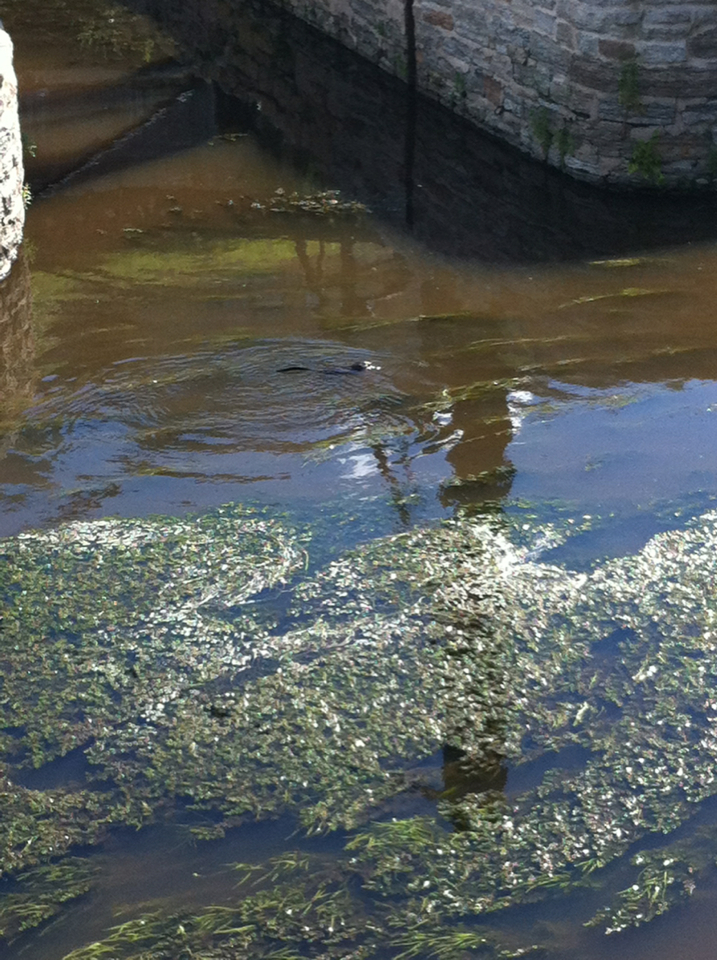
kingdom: Animalia
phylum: Chordata
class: Mammalia
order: Rodentia
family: Cricetidae
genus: Ondatra
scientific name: Ondatra zibethicus
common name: Muskrat
